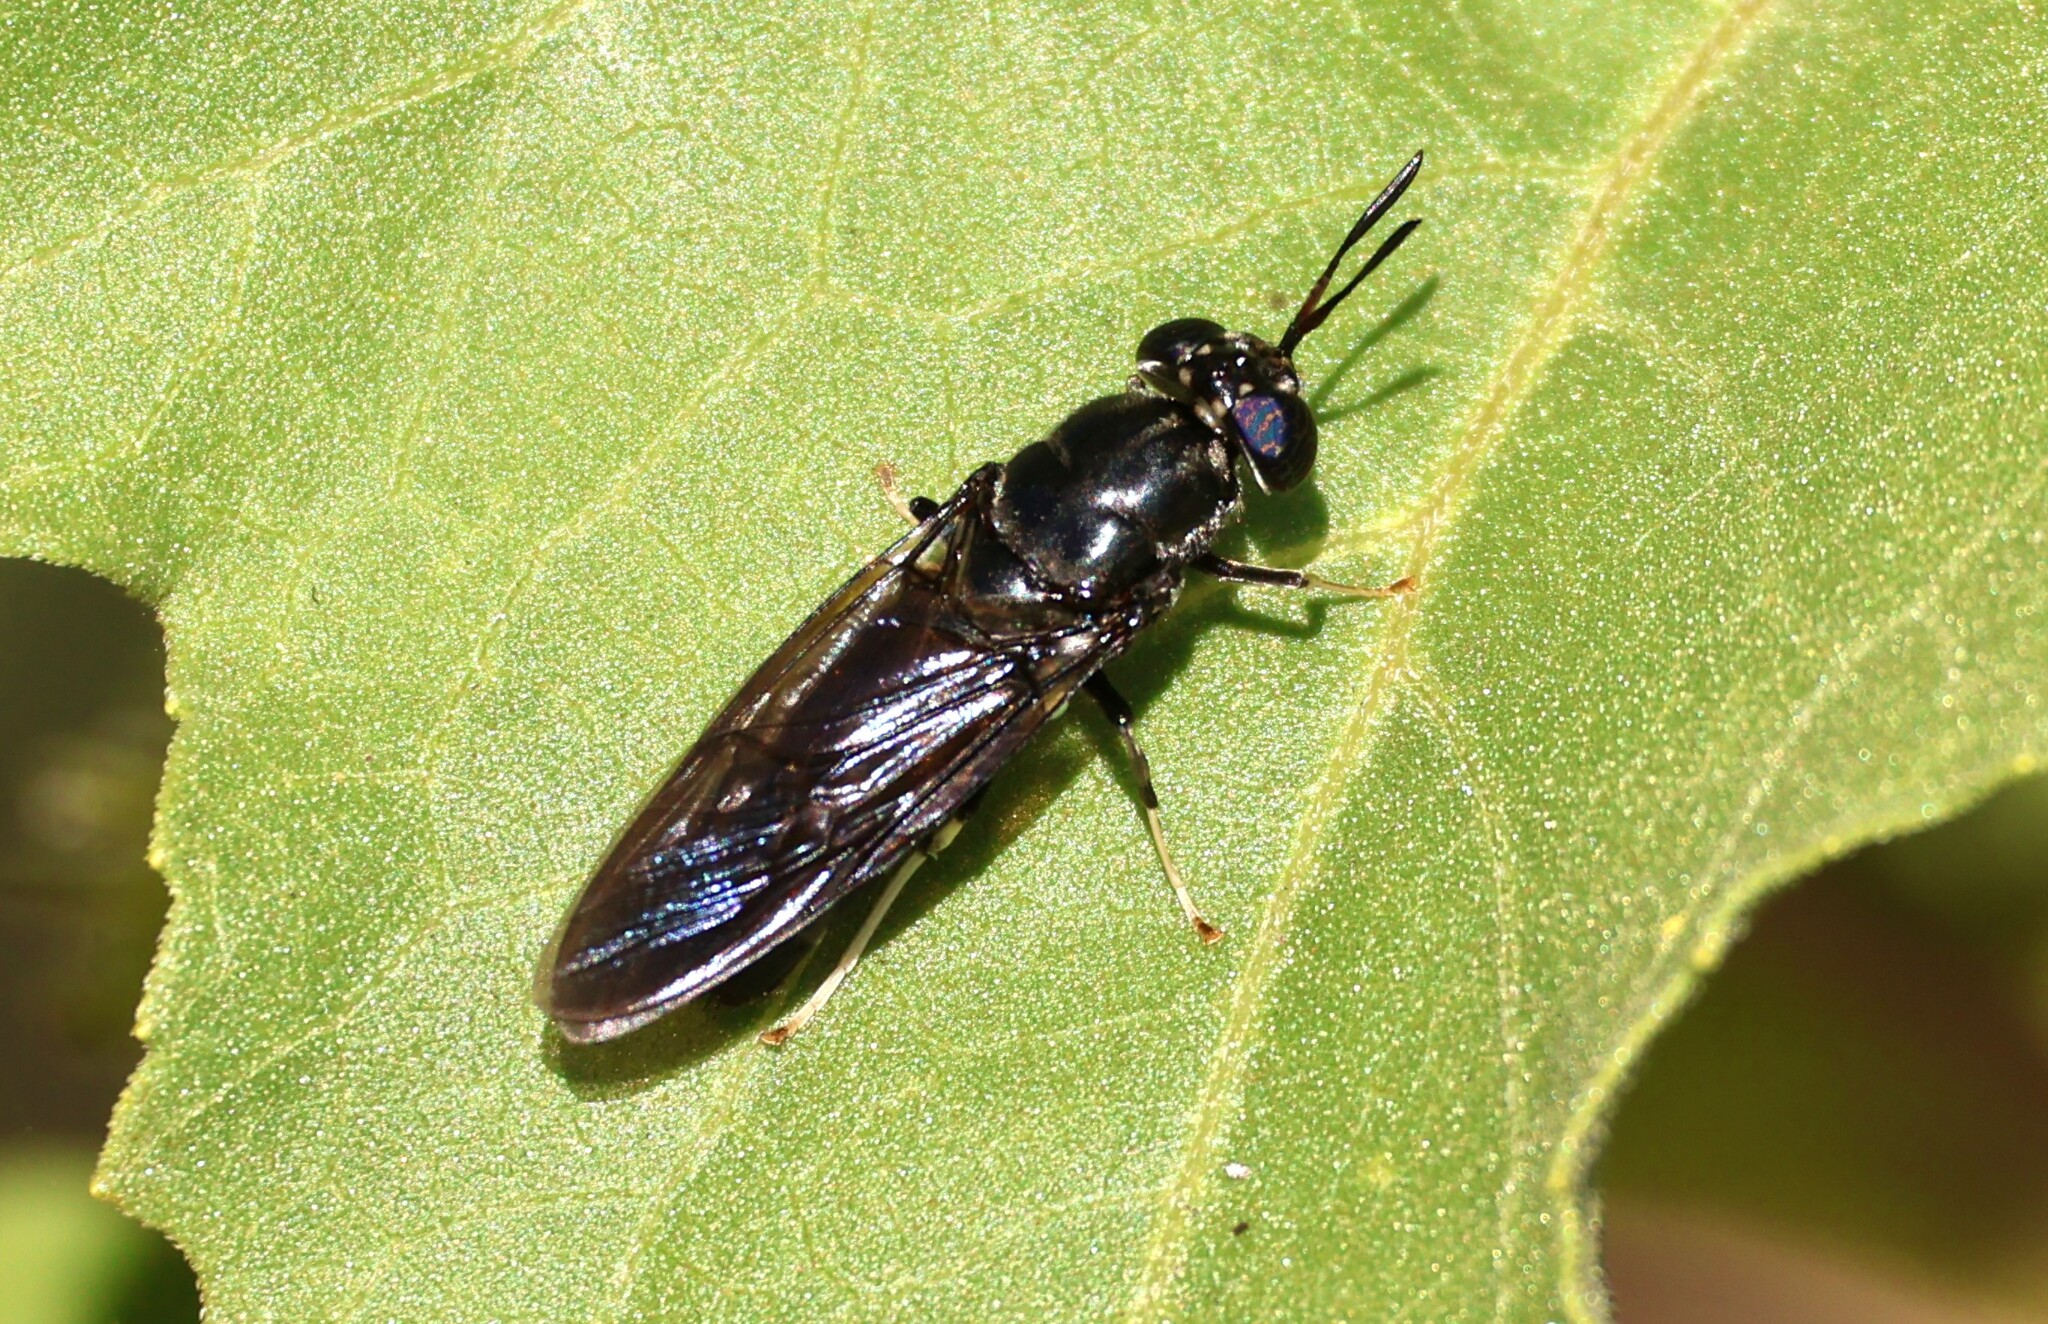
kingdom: Animalia
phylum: Arthropoda
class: Insecta
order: Diptera
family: Stratiomyidae
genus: Hermetia
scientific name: Hermetia illucens
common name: Black soldier fly
